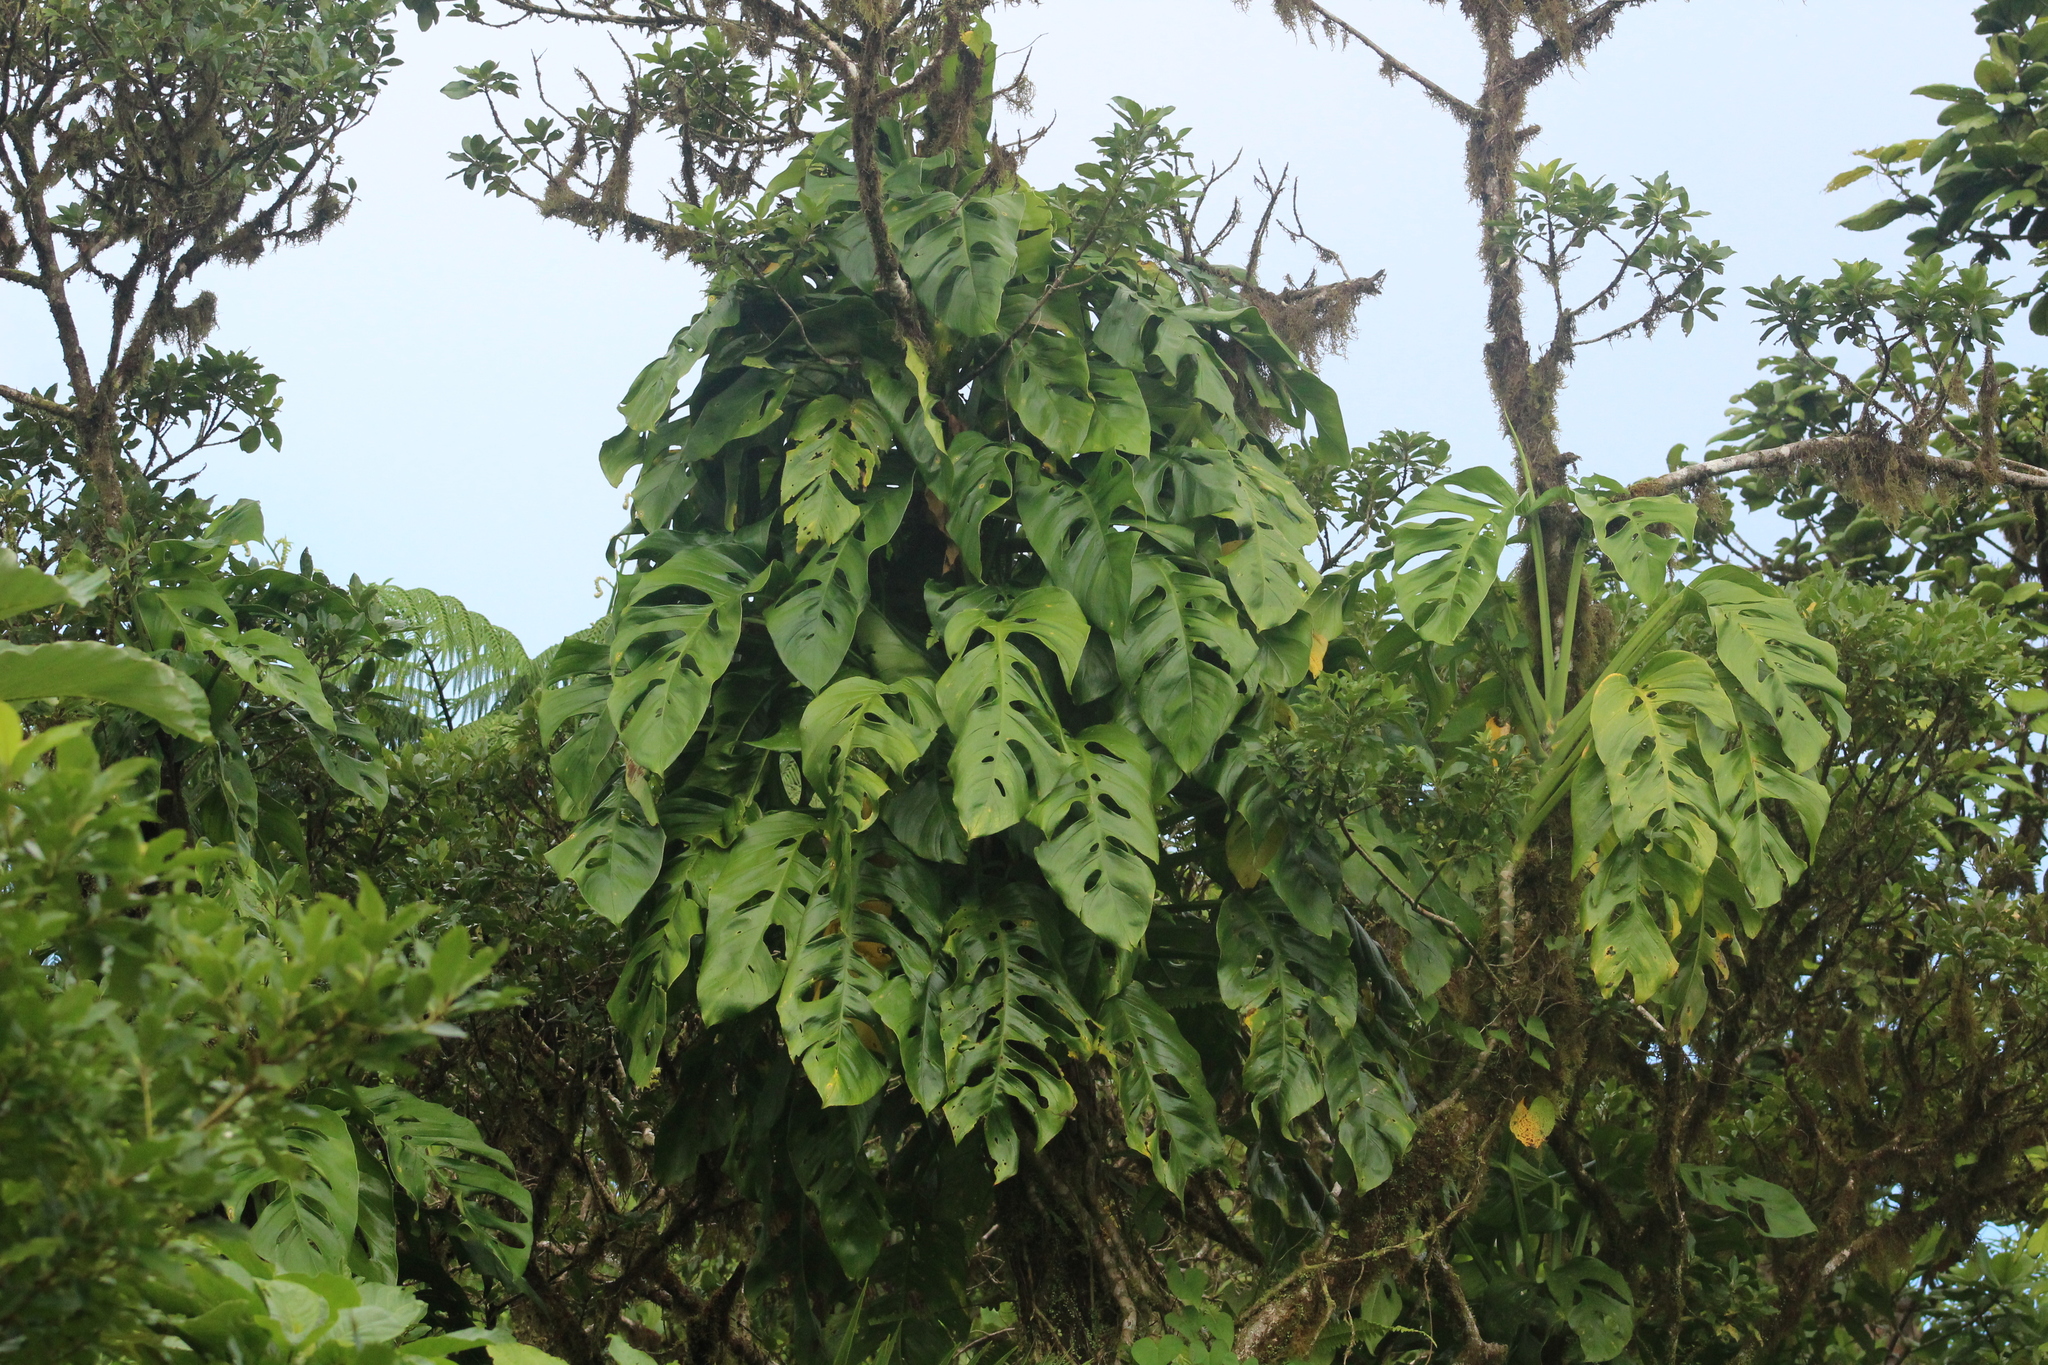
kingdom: Plantae
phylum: Tracheophyta
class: Liliopsida
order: Alismatales
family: Araceae
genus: Monstera
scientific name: Monstera adansonii
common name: Tarovine
